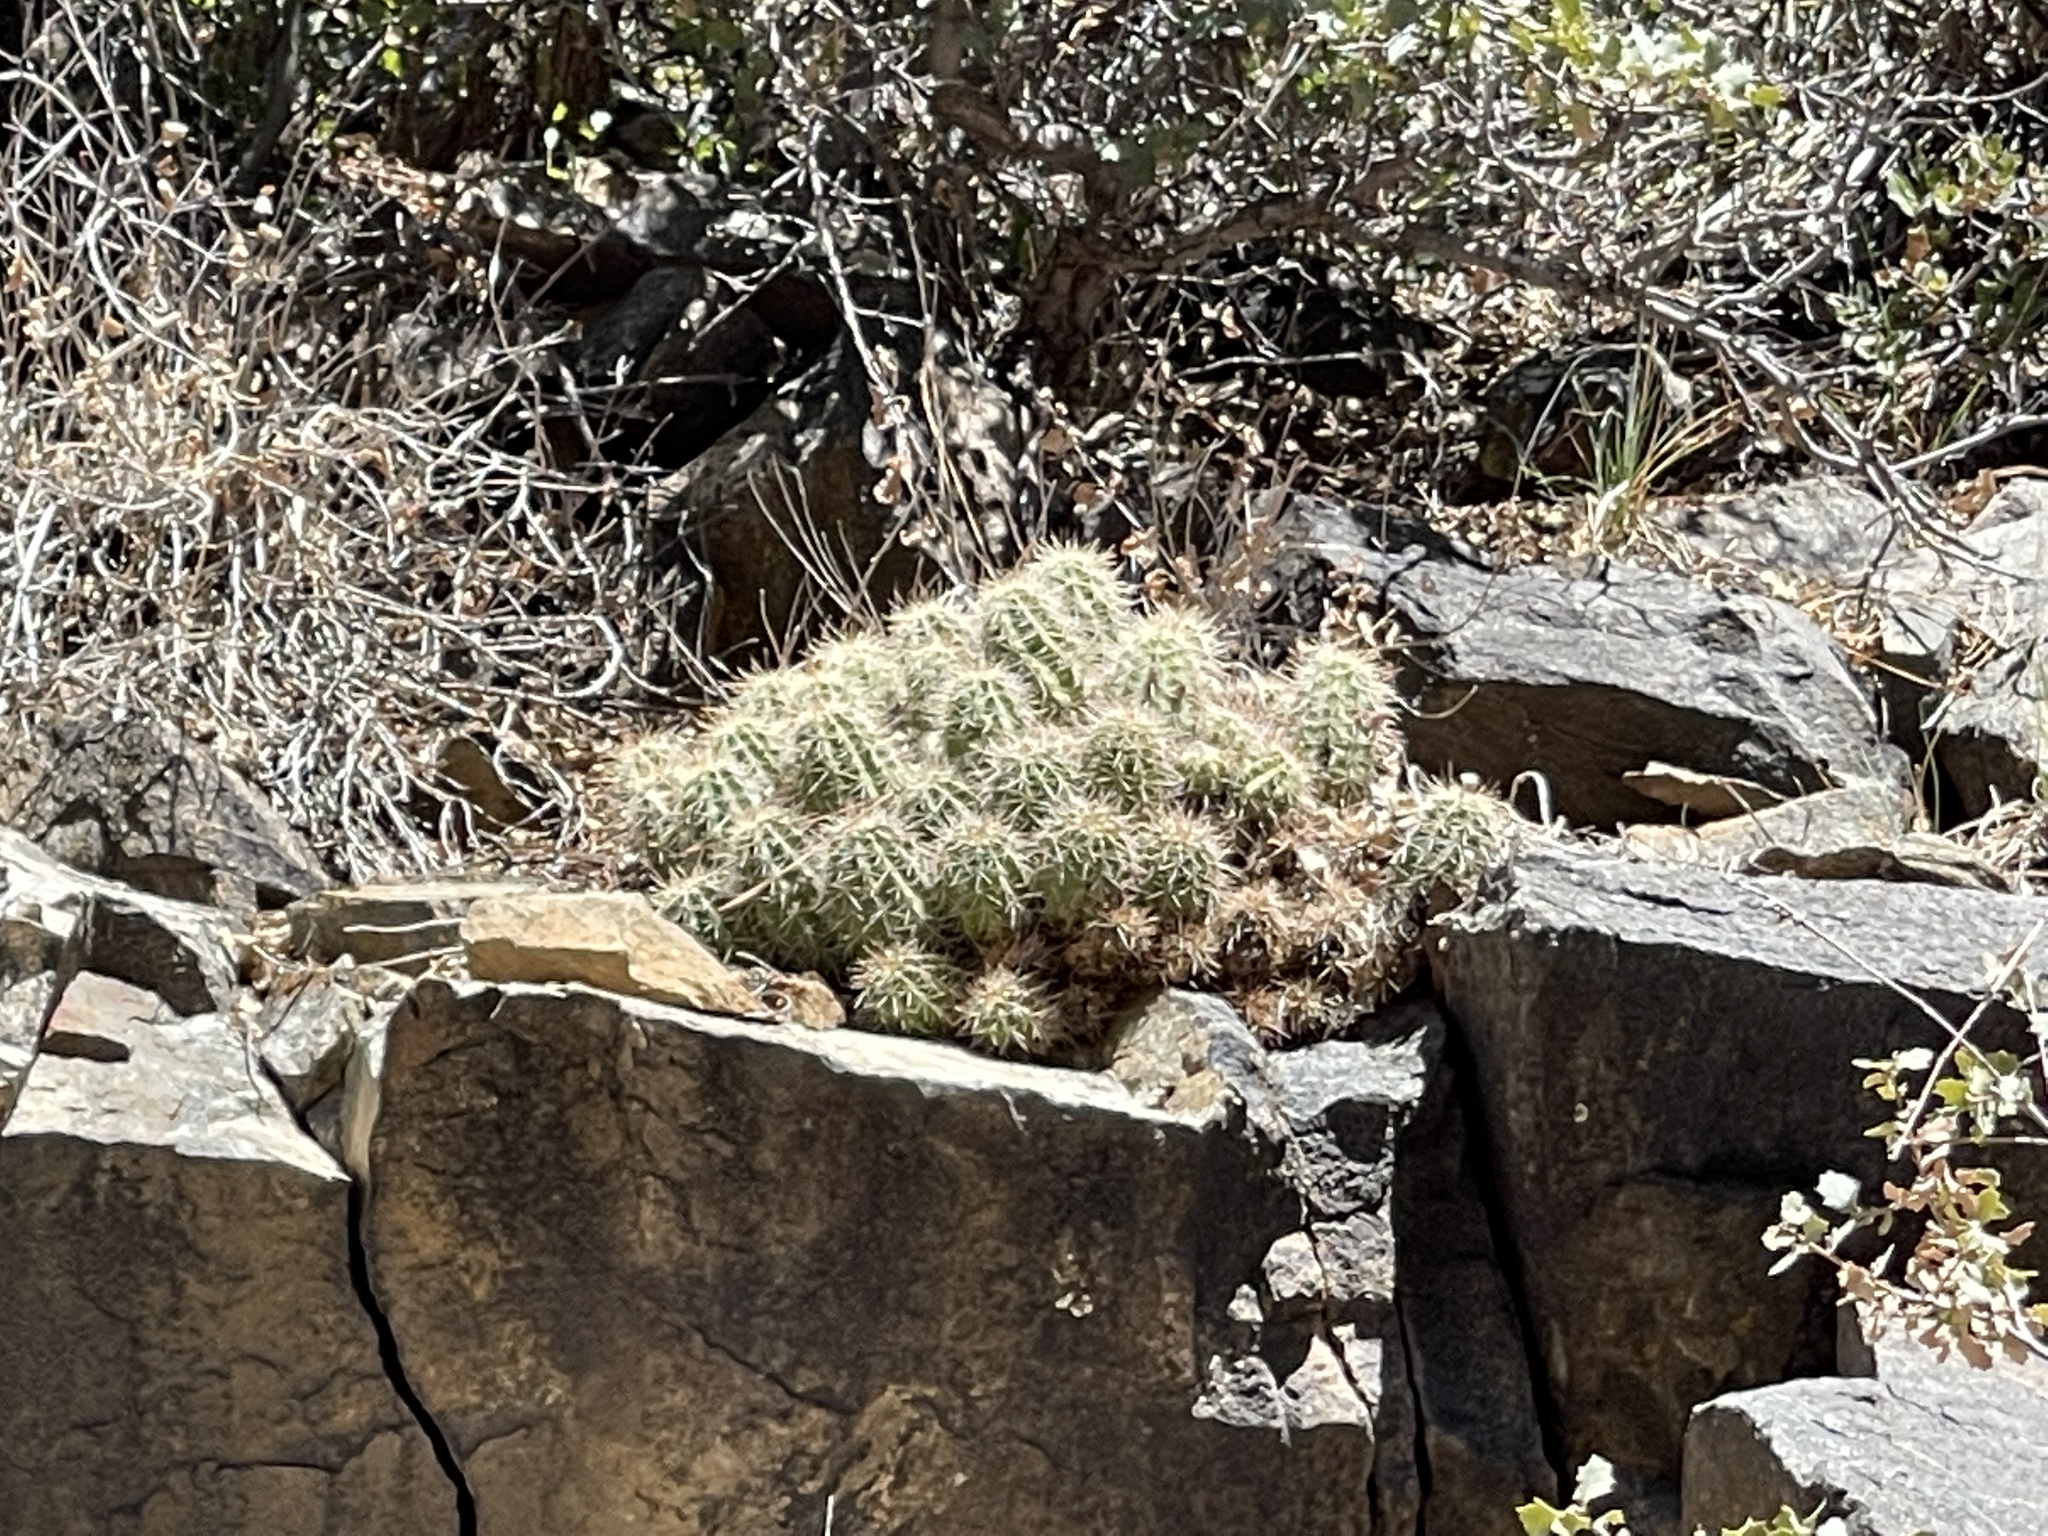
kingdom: Plantae
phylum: Tracheophyta
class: Magnoliopsida
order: Caryophyllales
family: Cactaceae
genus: Echinocereus
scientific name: Echinocereus bakeri
